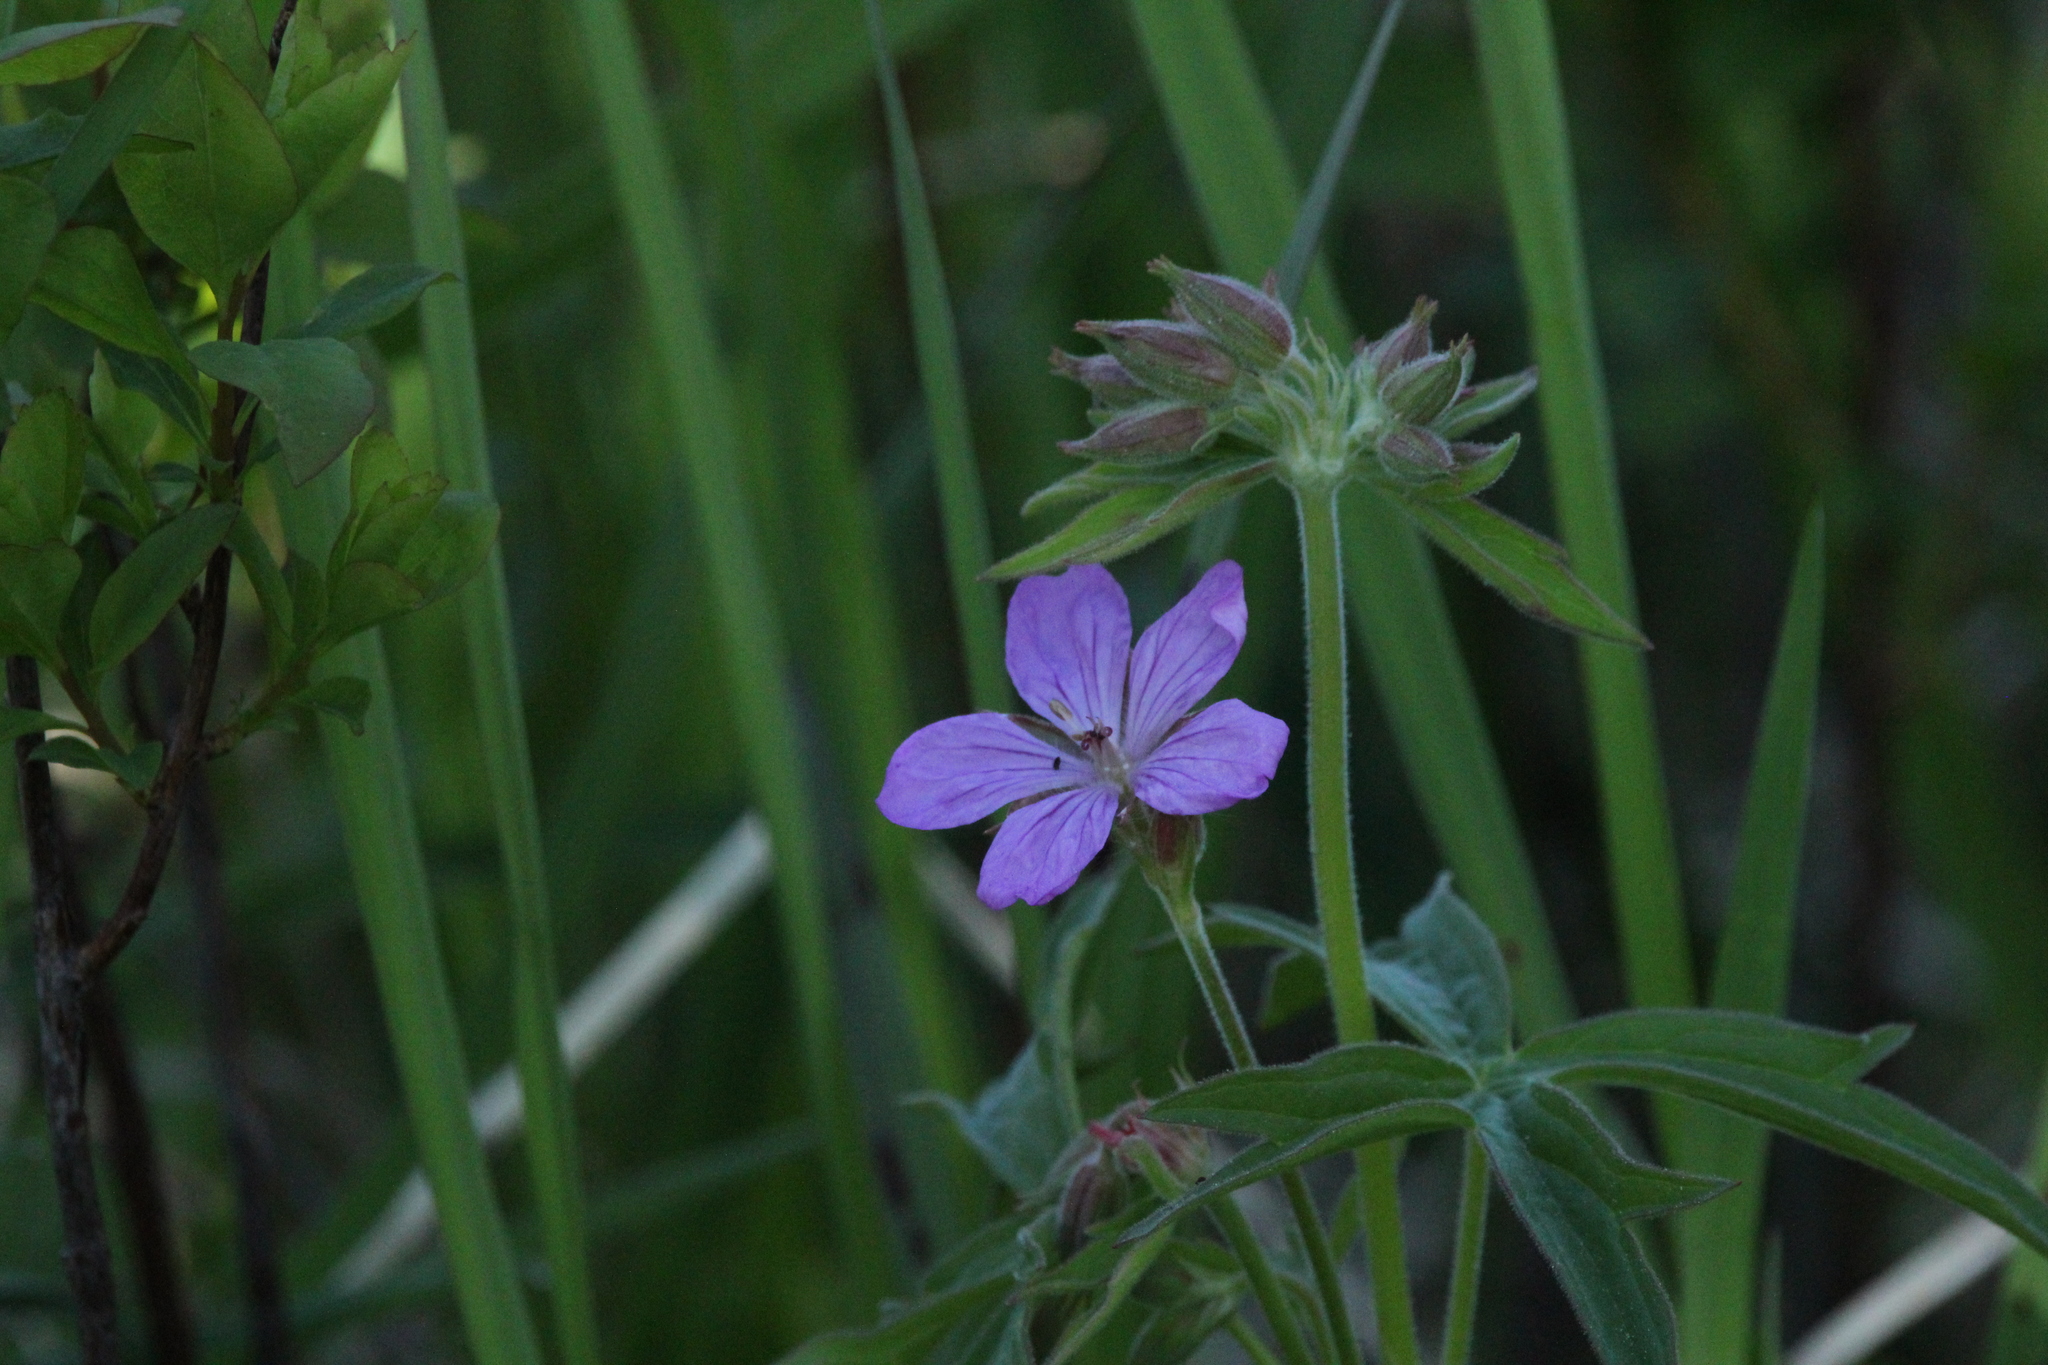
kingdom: Plantae
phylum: Tracheophyta
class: Magnoliopsida
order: Geraniales
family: Geraniaceae
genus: Geranium
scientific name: Geranium viscosissimum
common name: Purple geranium
